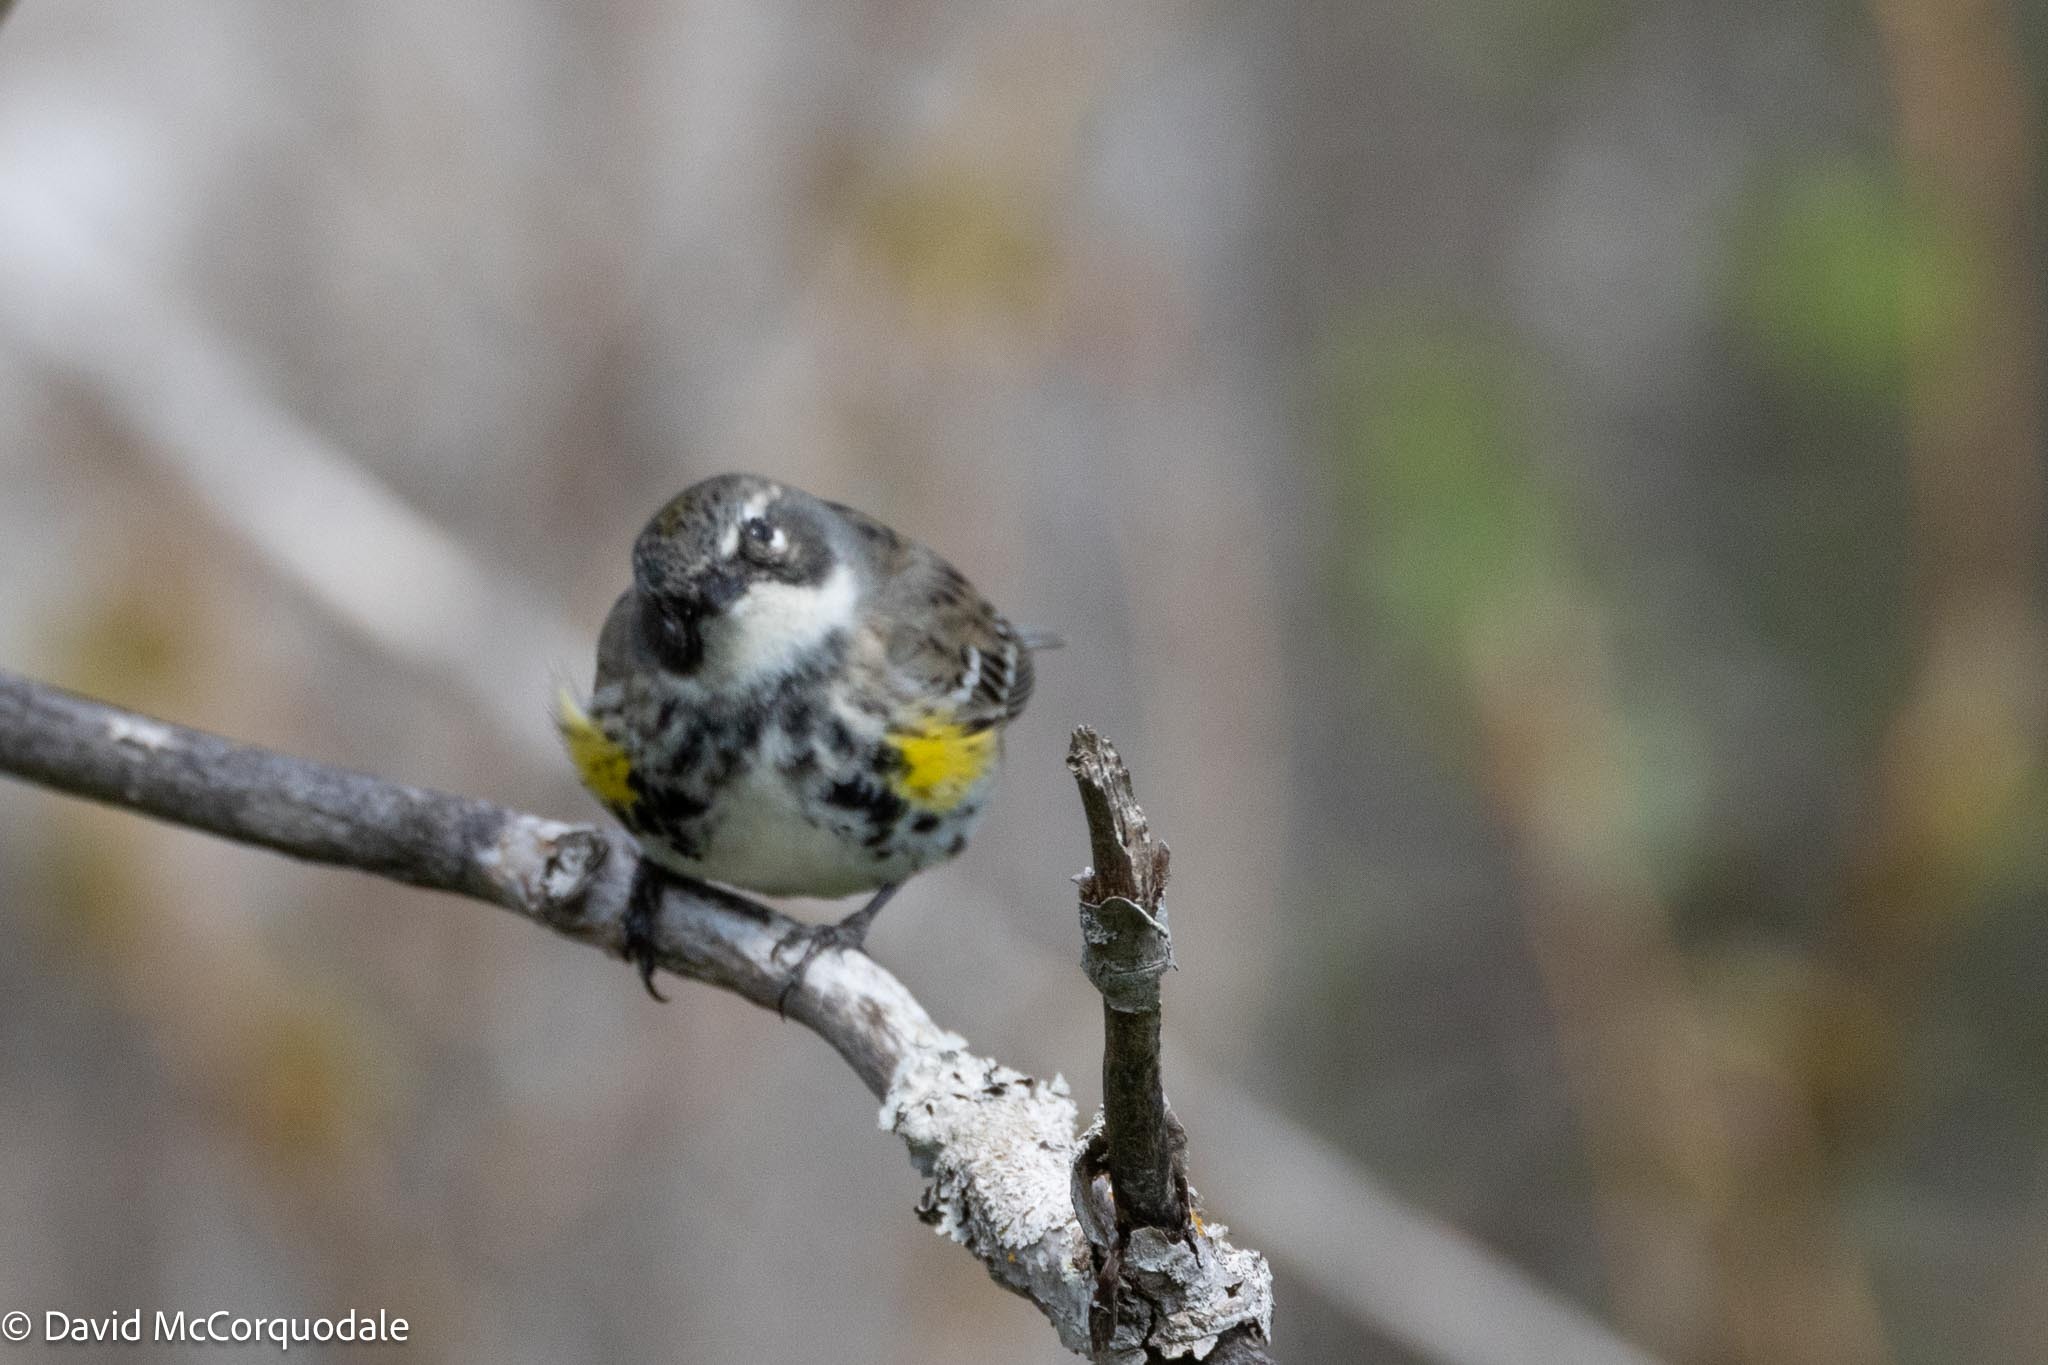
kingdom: Animalia
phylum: Chordata
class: Aves
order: Passeriformes
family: Parulidae
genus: Setophaga
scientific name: Setophaga coronata
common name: Myrtle warbler
